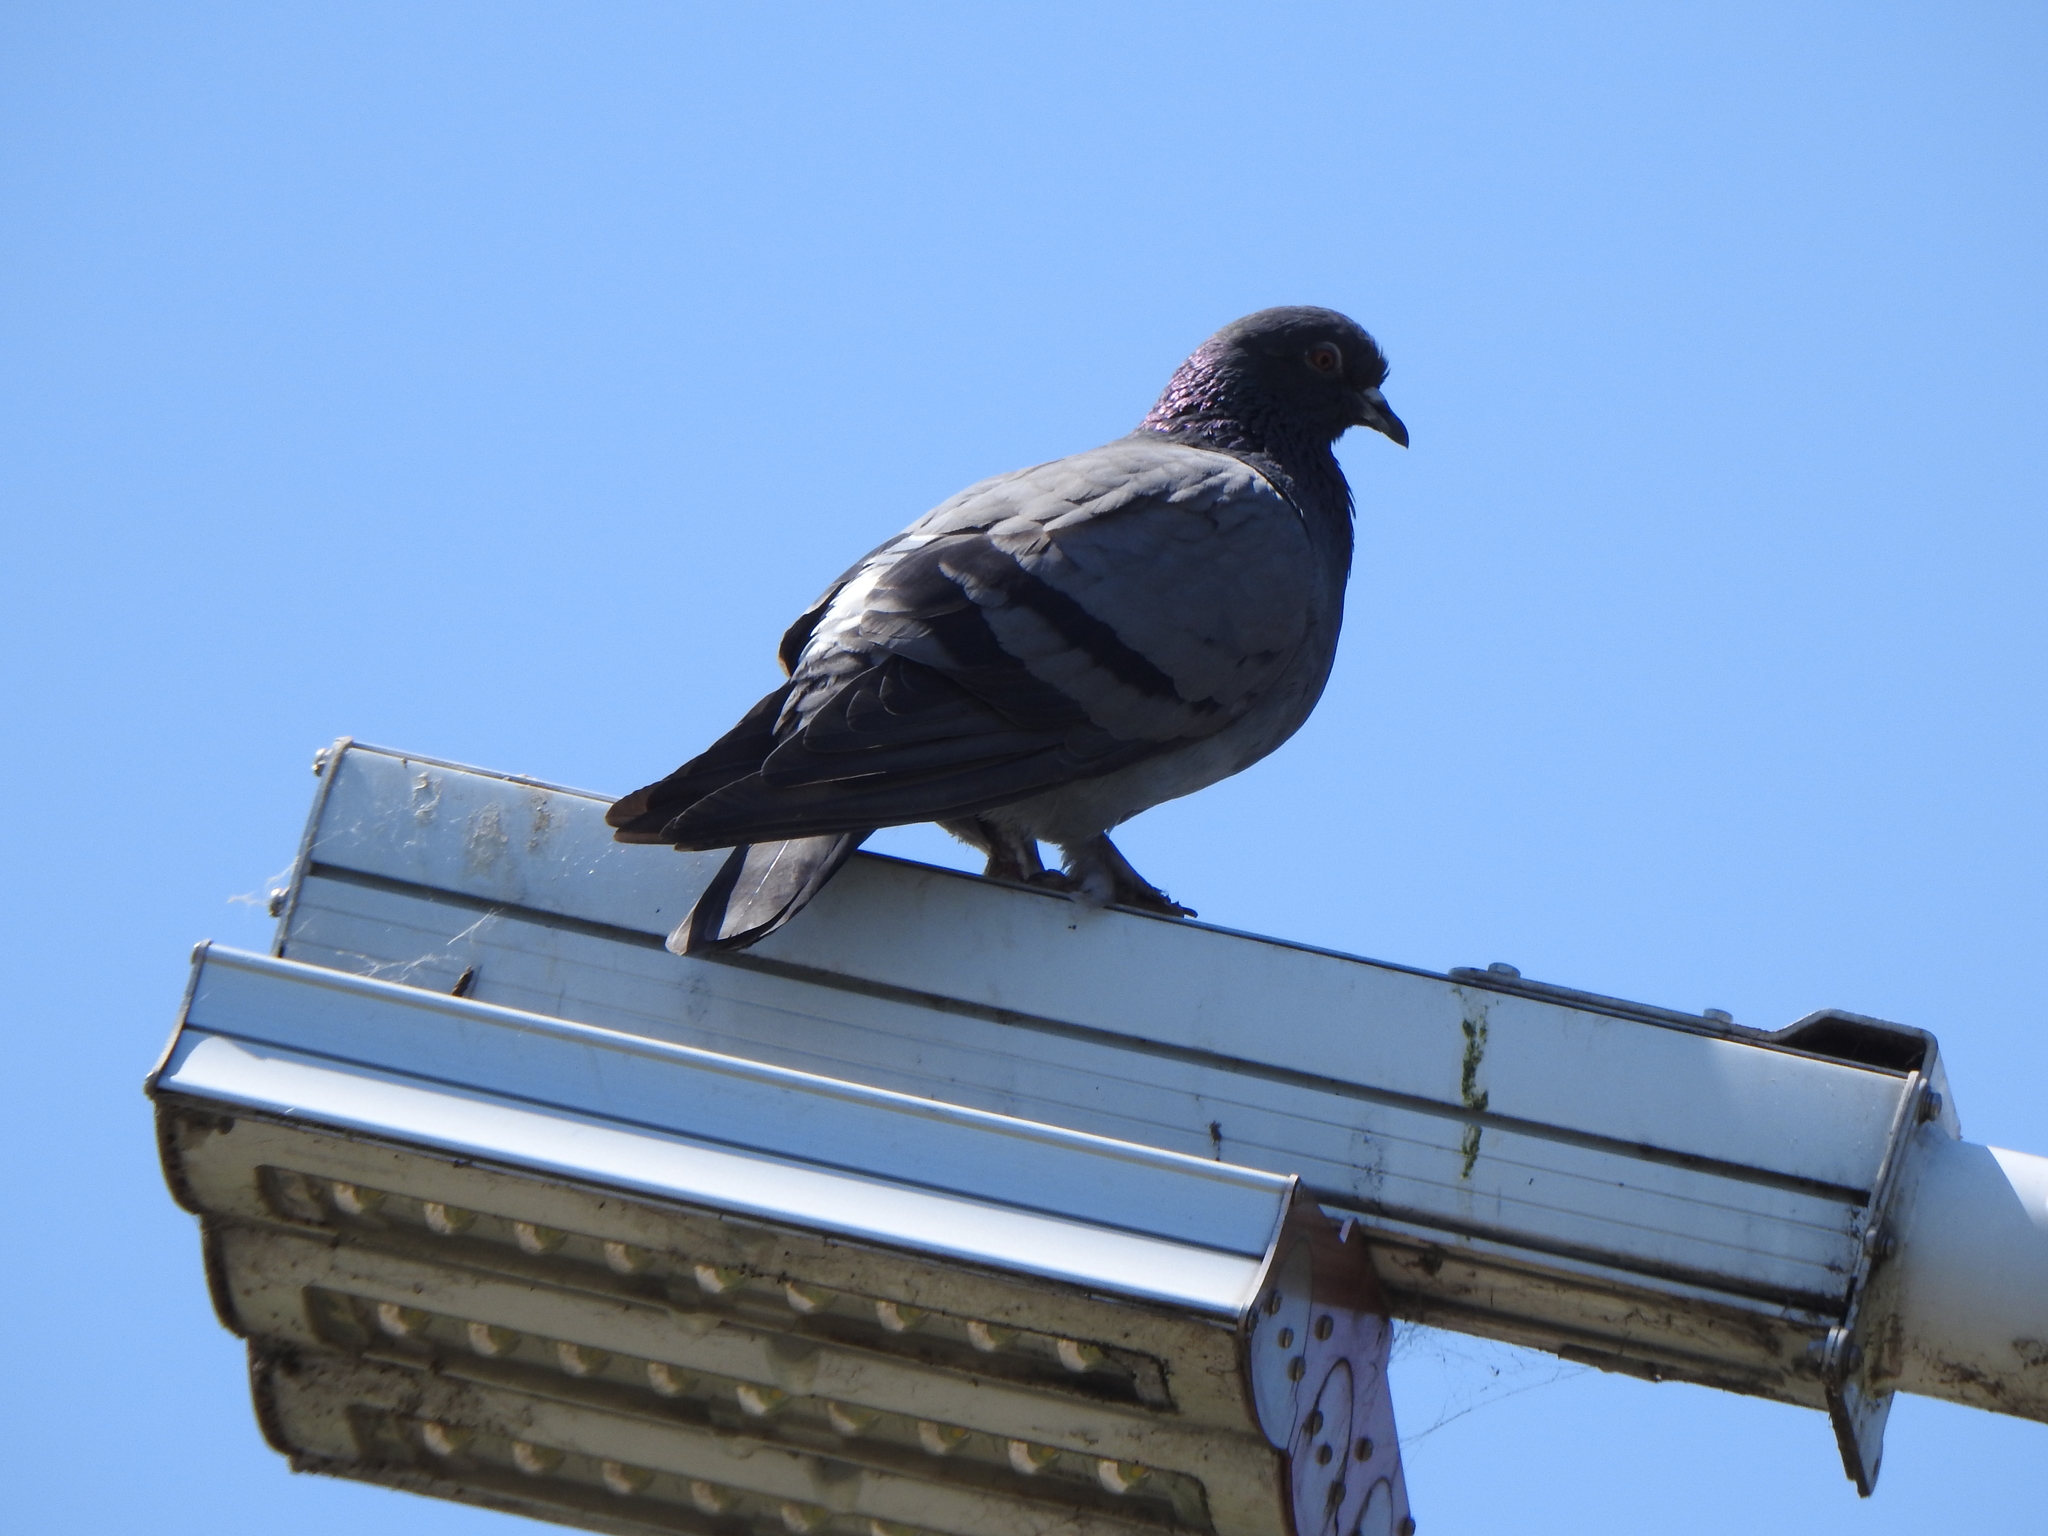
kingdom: Animalia
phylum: Chordata
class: Aves
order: Columbiformes
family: Columbidae
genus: Columba
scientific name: Columba livia
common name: Rock pigeon
